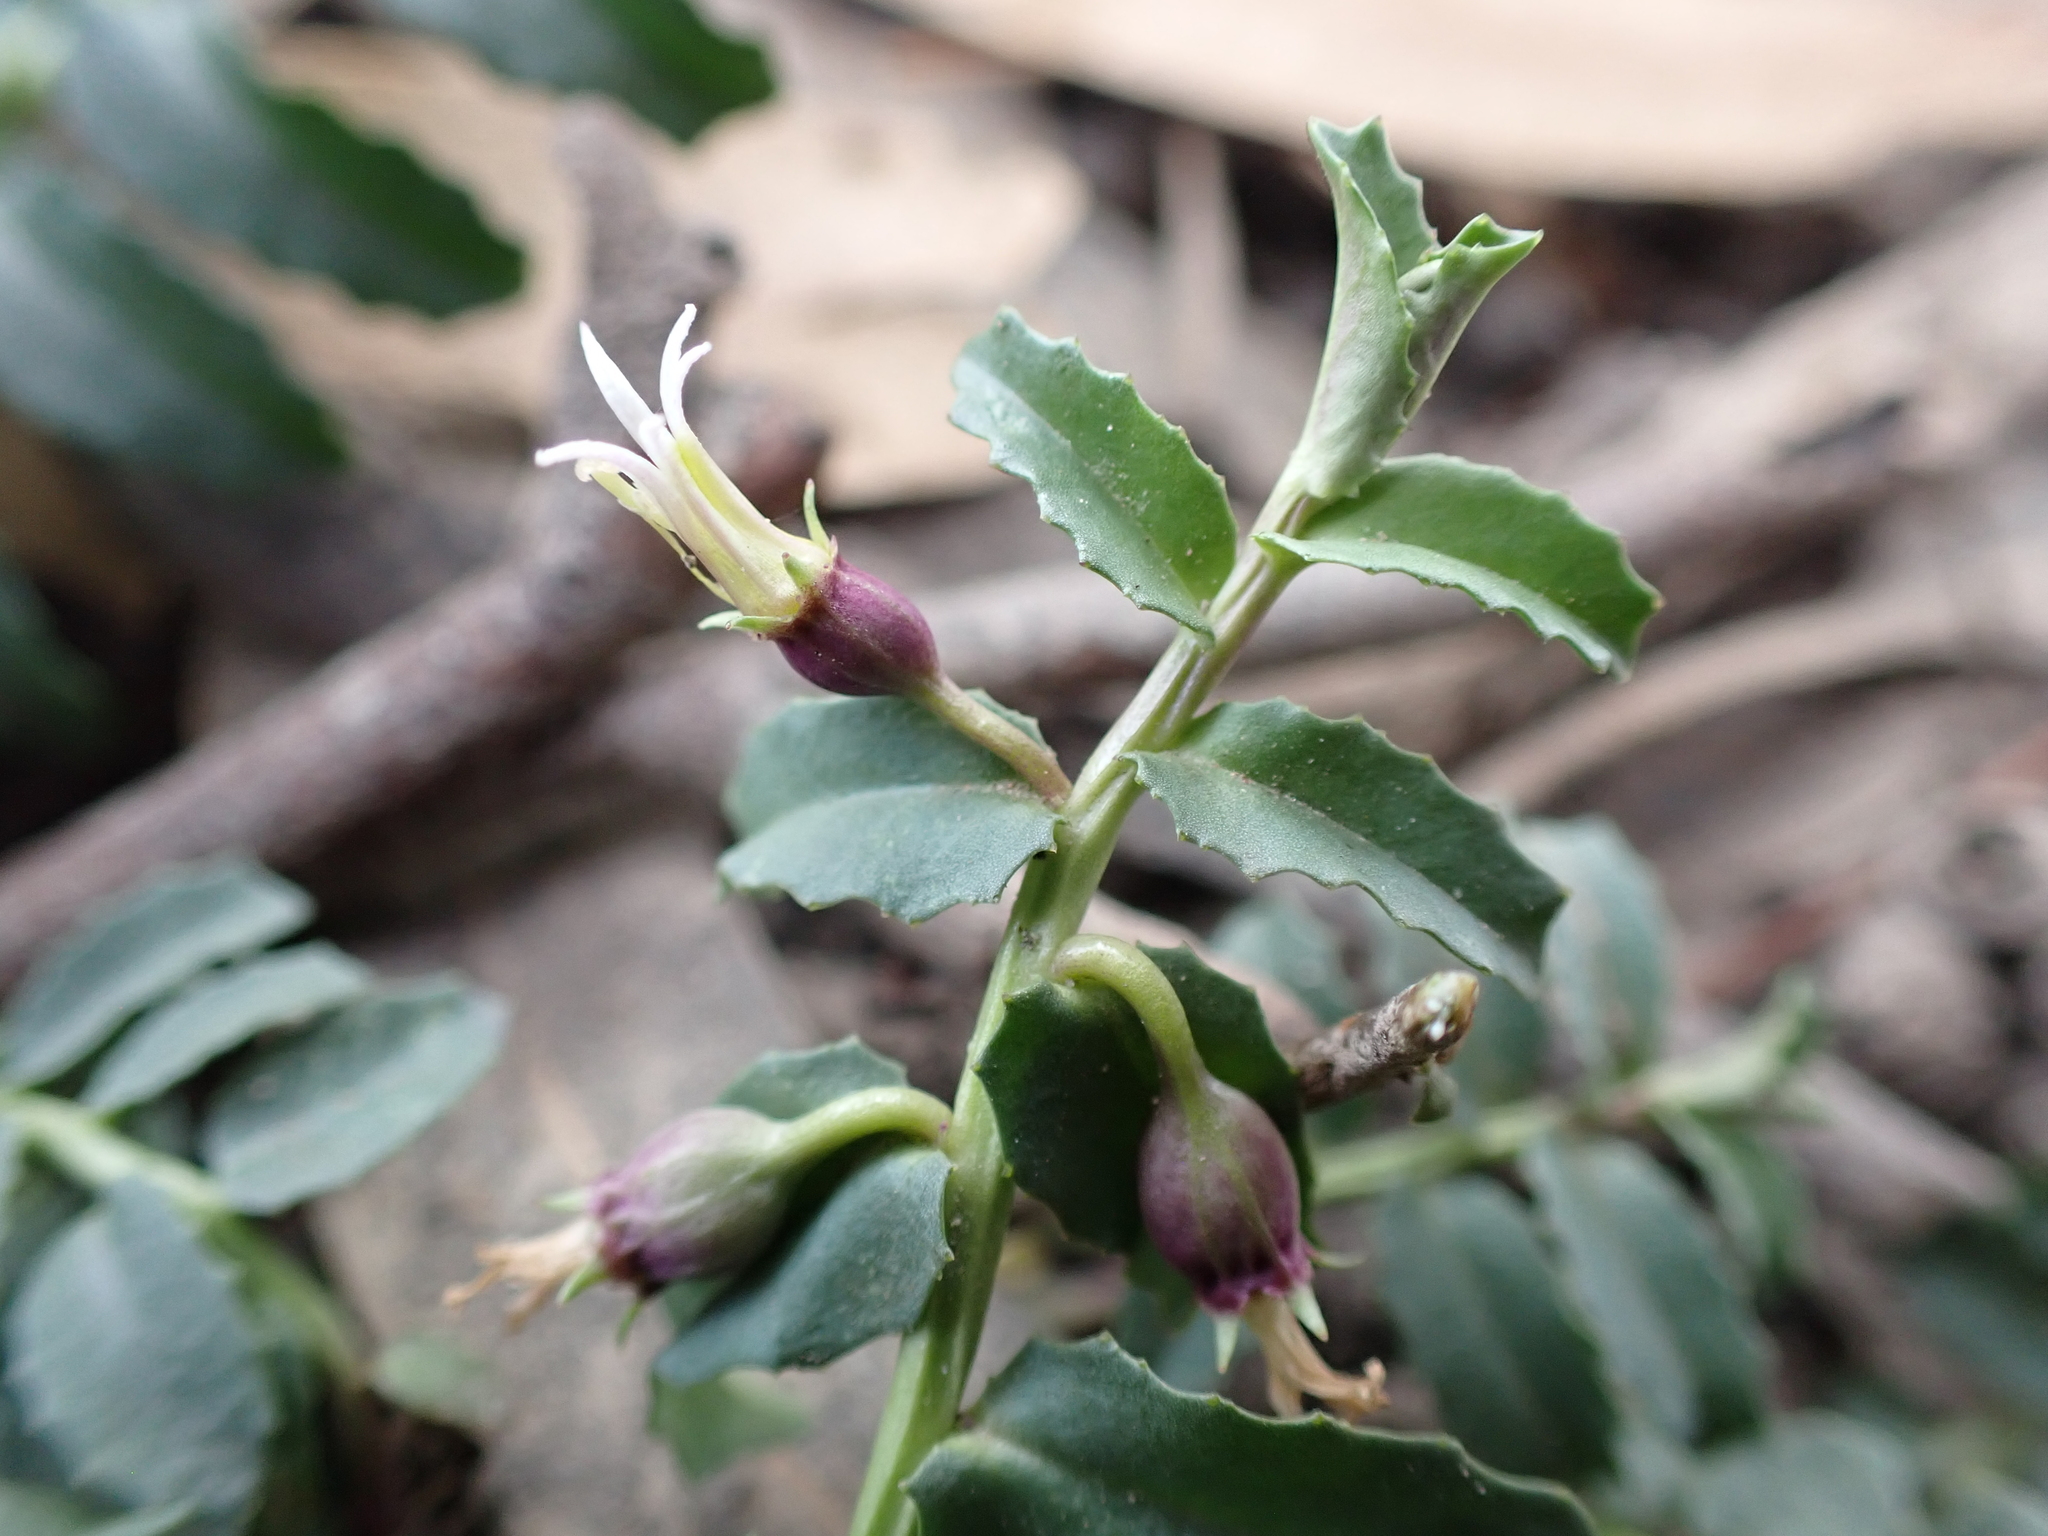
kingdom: Plantae
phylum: Tracheophyta
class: Magnoliopsida
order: Asterales
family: Campanulaceae
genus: Lobelia
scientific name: Lobelia concolor
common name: Poison pratia
